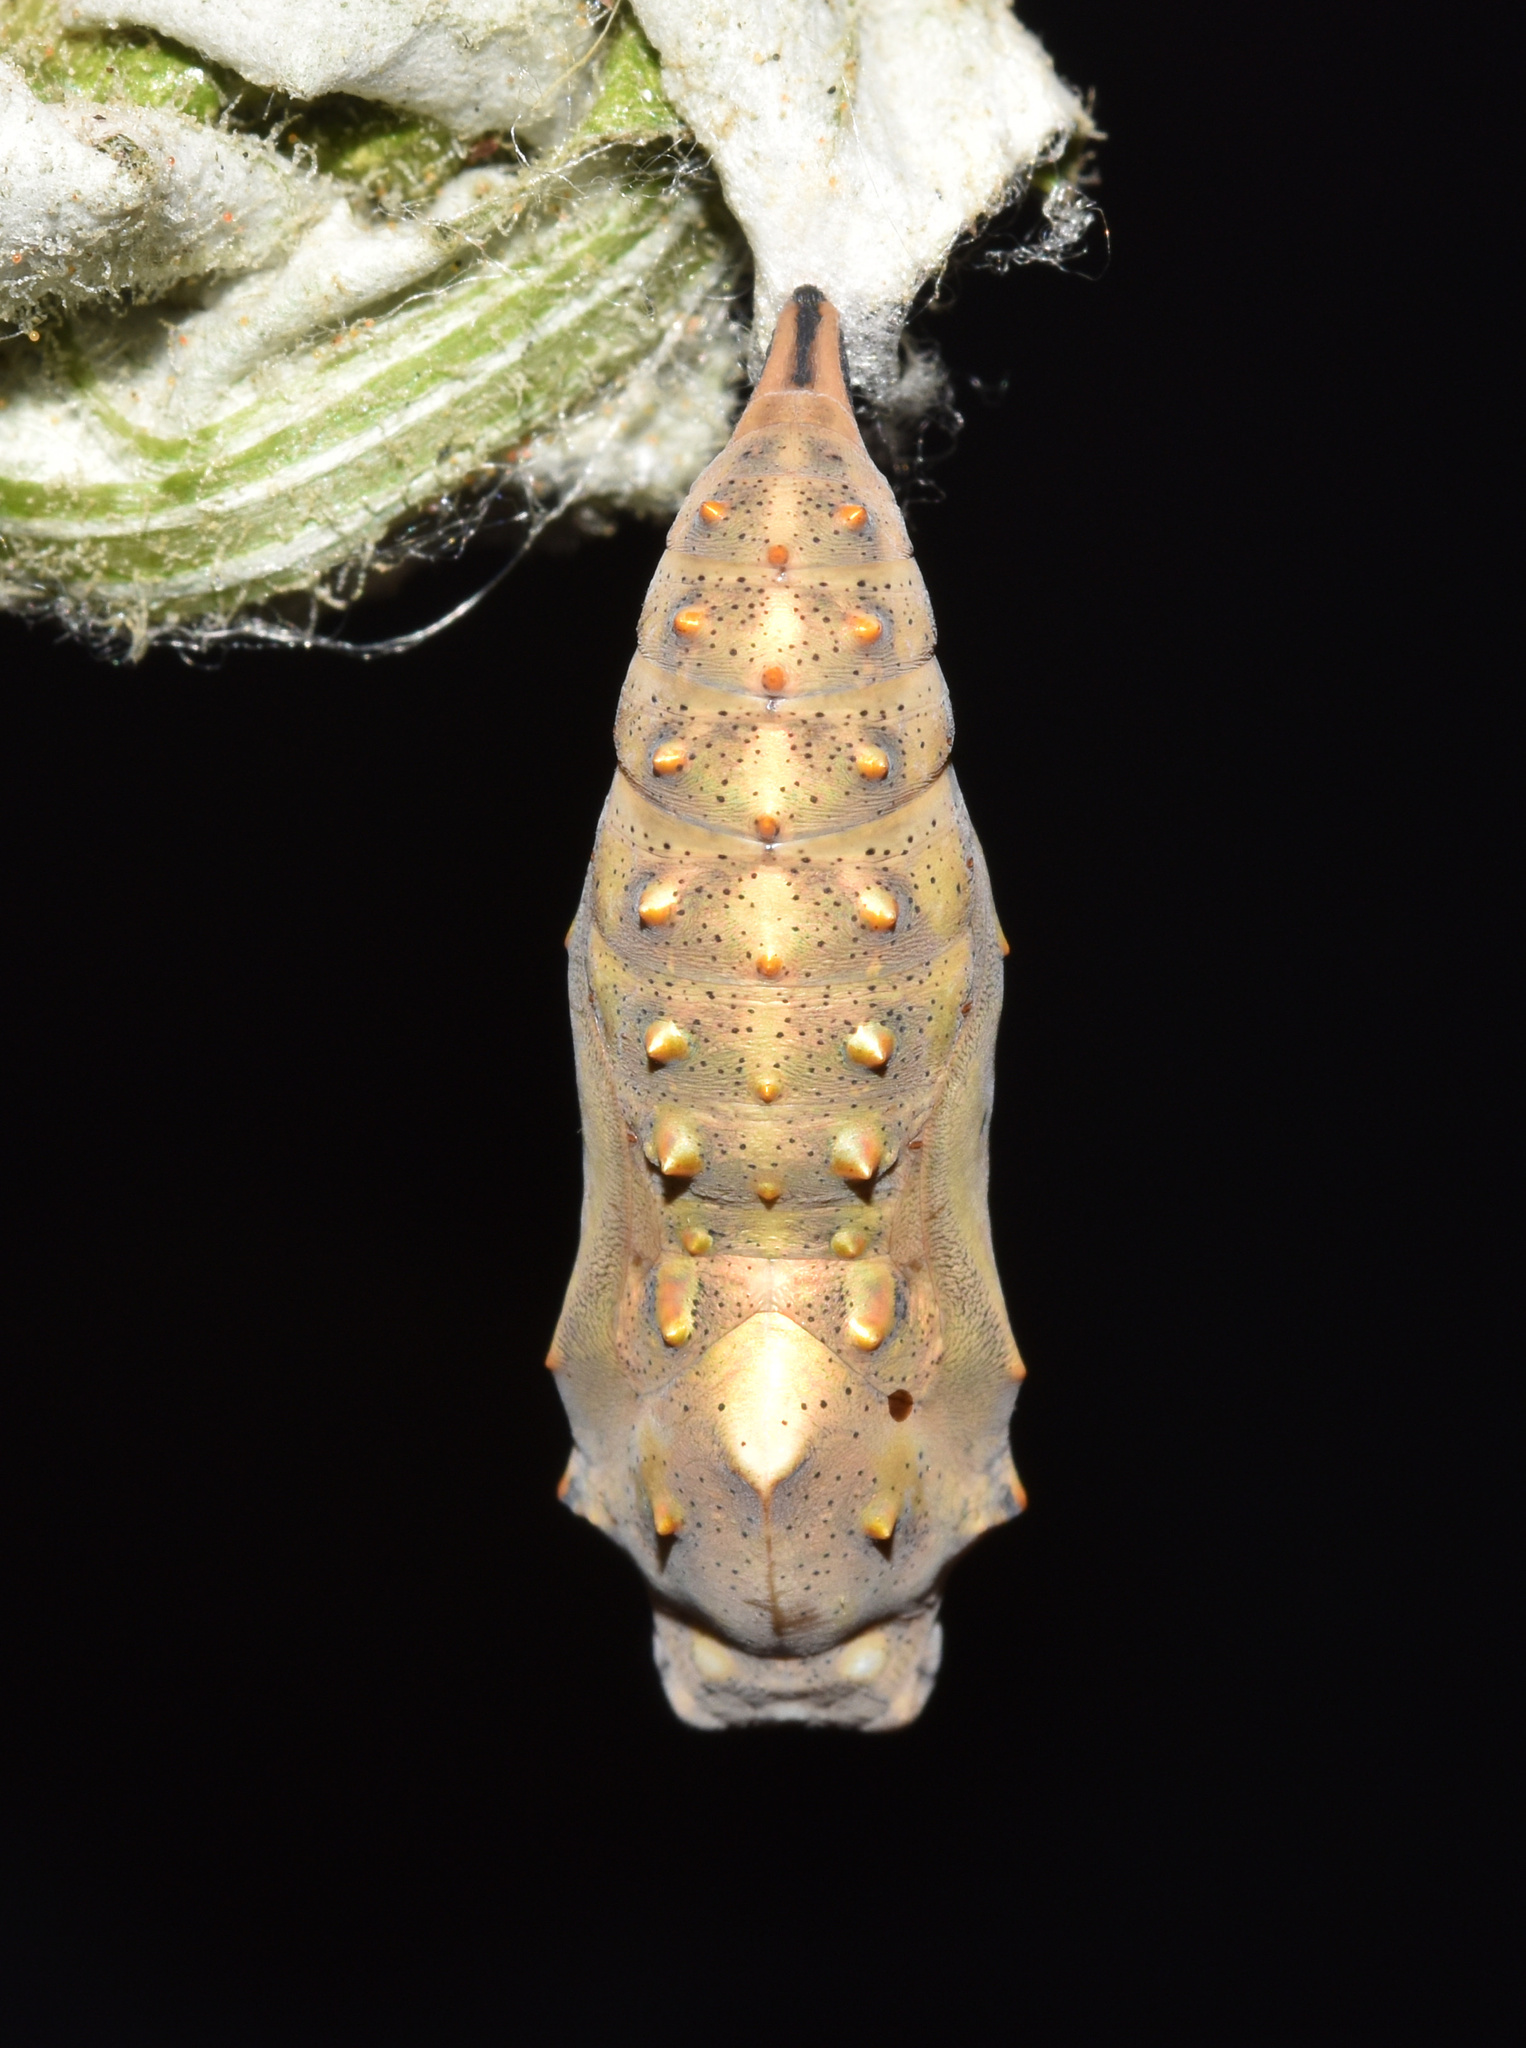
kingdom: Animalia
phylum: Arthropoda
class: Insecta
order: Lepidoptera
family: Nymphalidae
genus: Vanessa
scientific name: Vanessa cardui
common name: Painted lady
